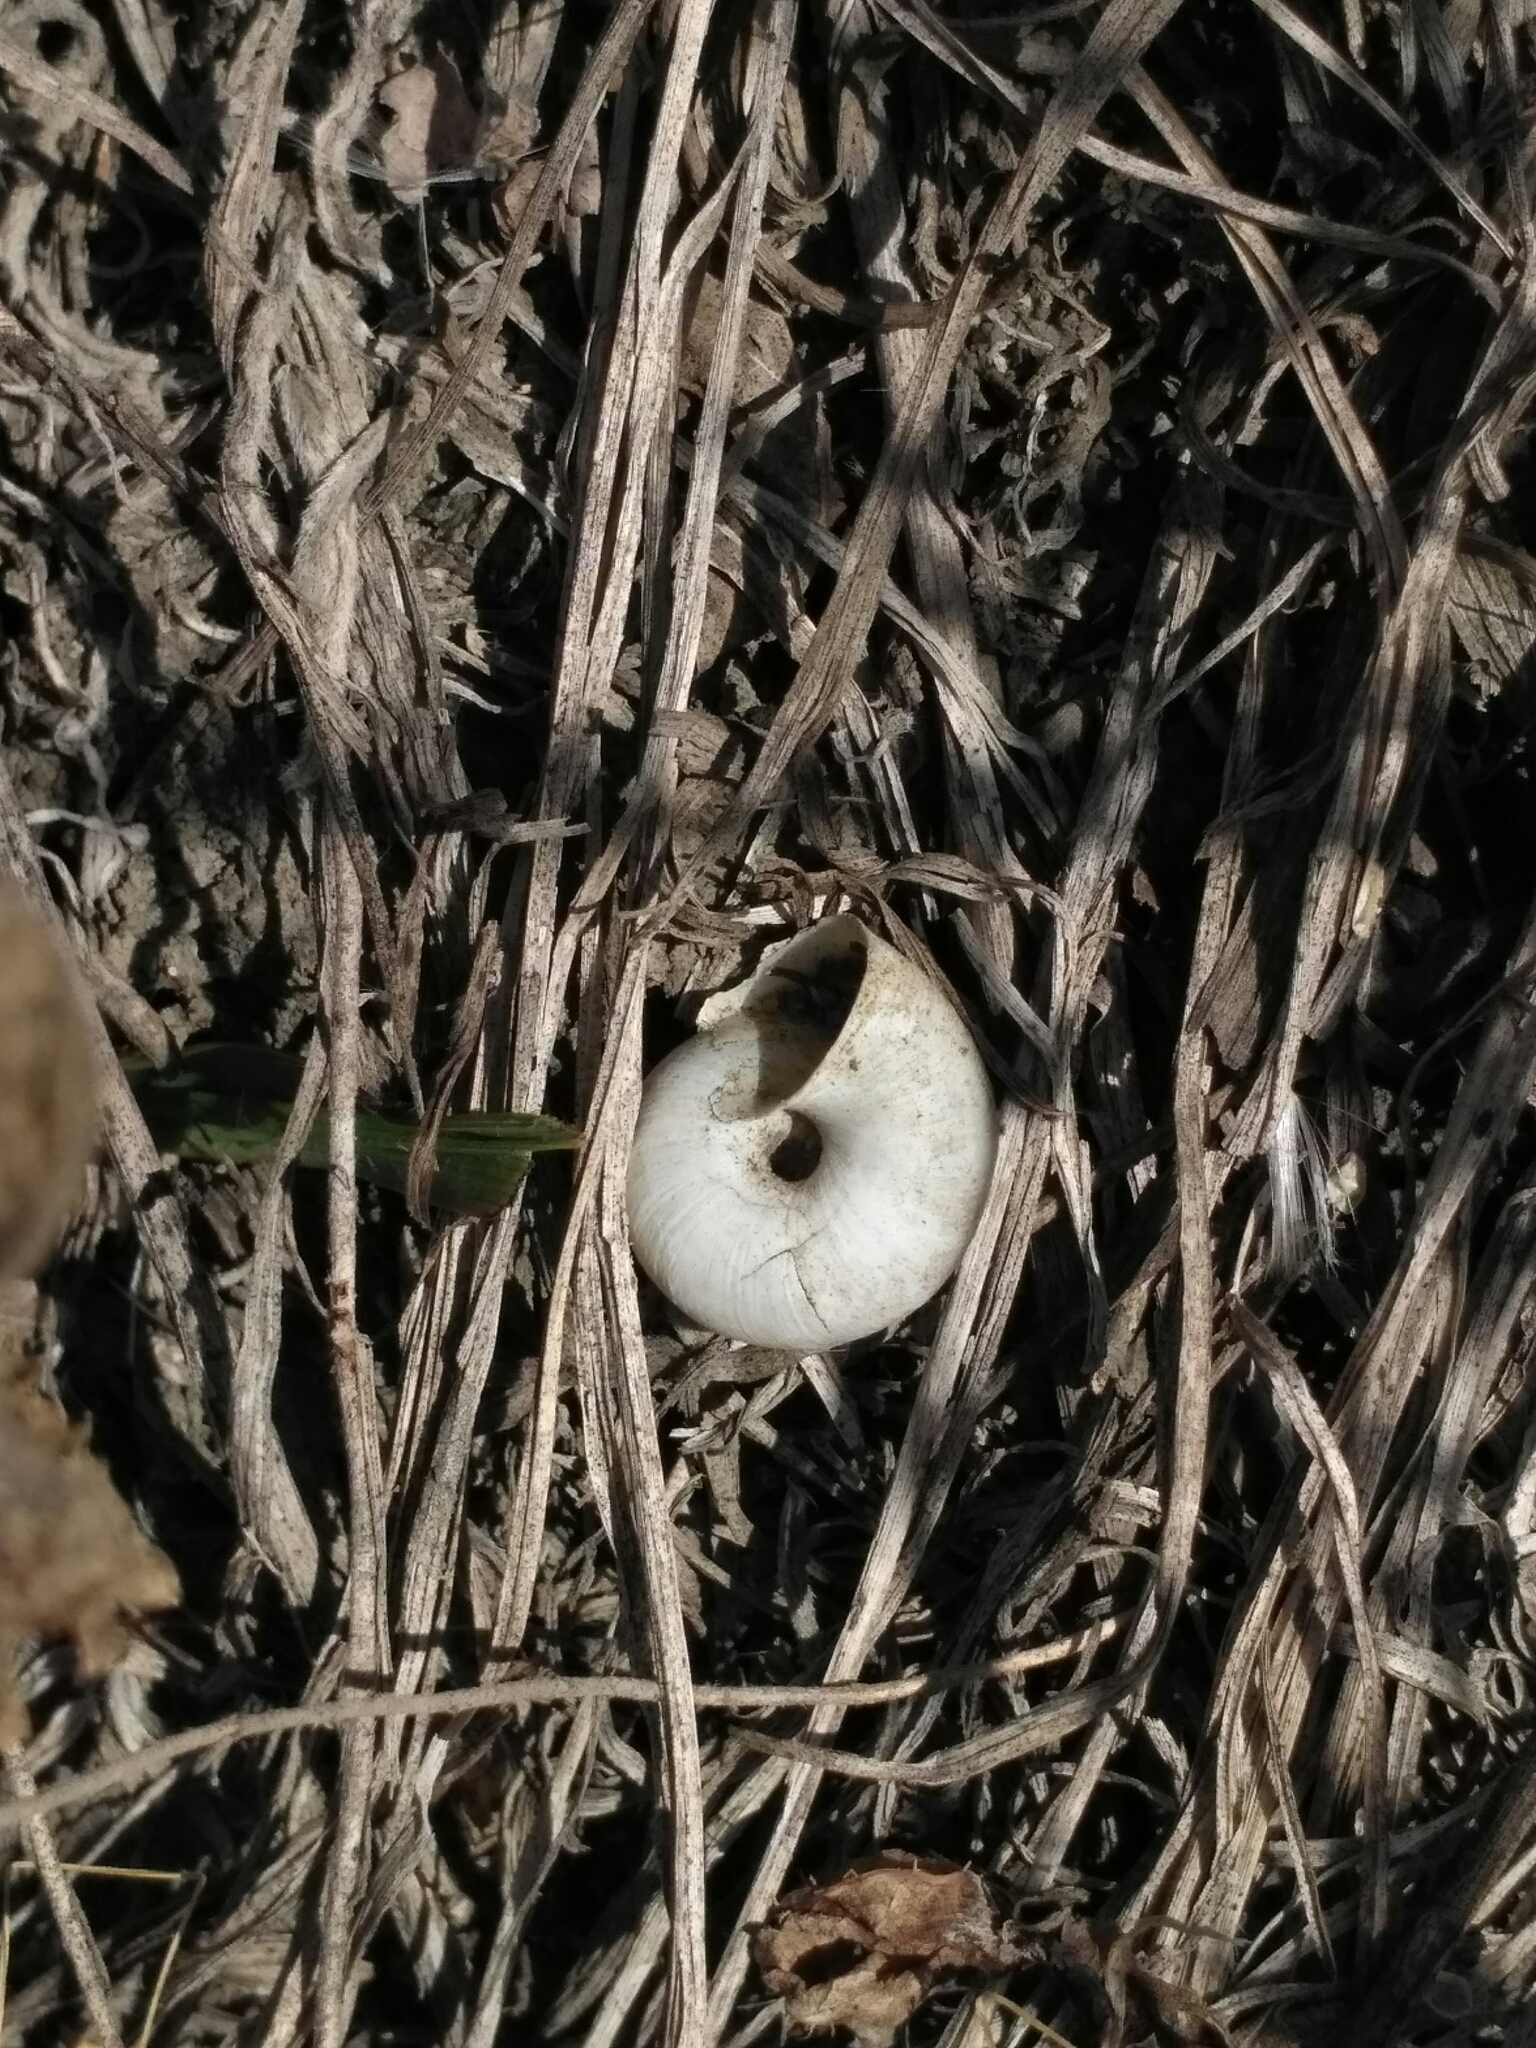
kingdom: Animalia
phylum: Mollusca
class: Gastropoda
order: Stylommatophora
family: Hygromiidae
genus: Euomphalia
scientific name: Euomphalia strigella
